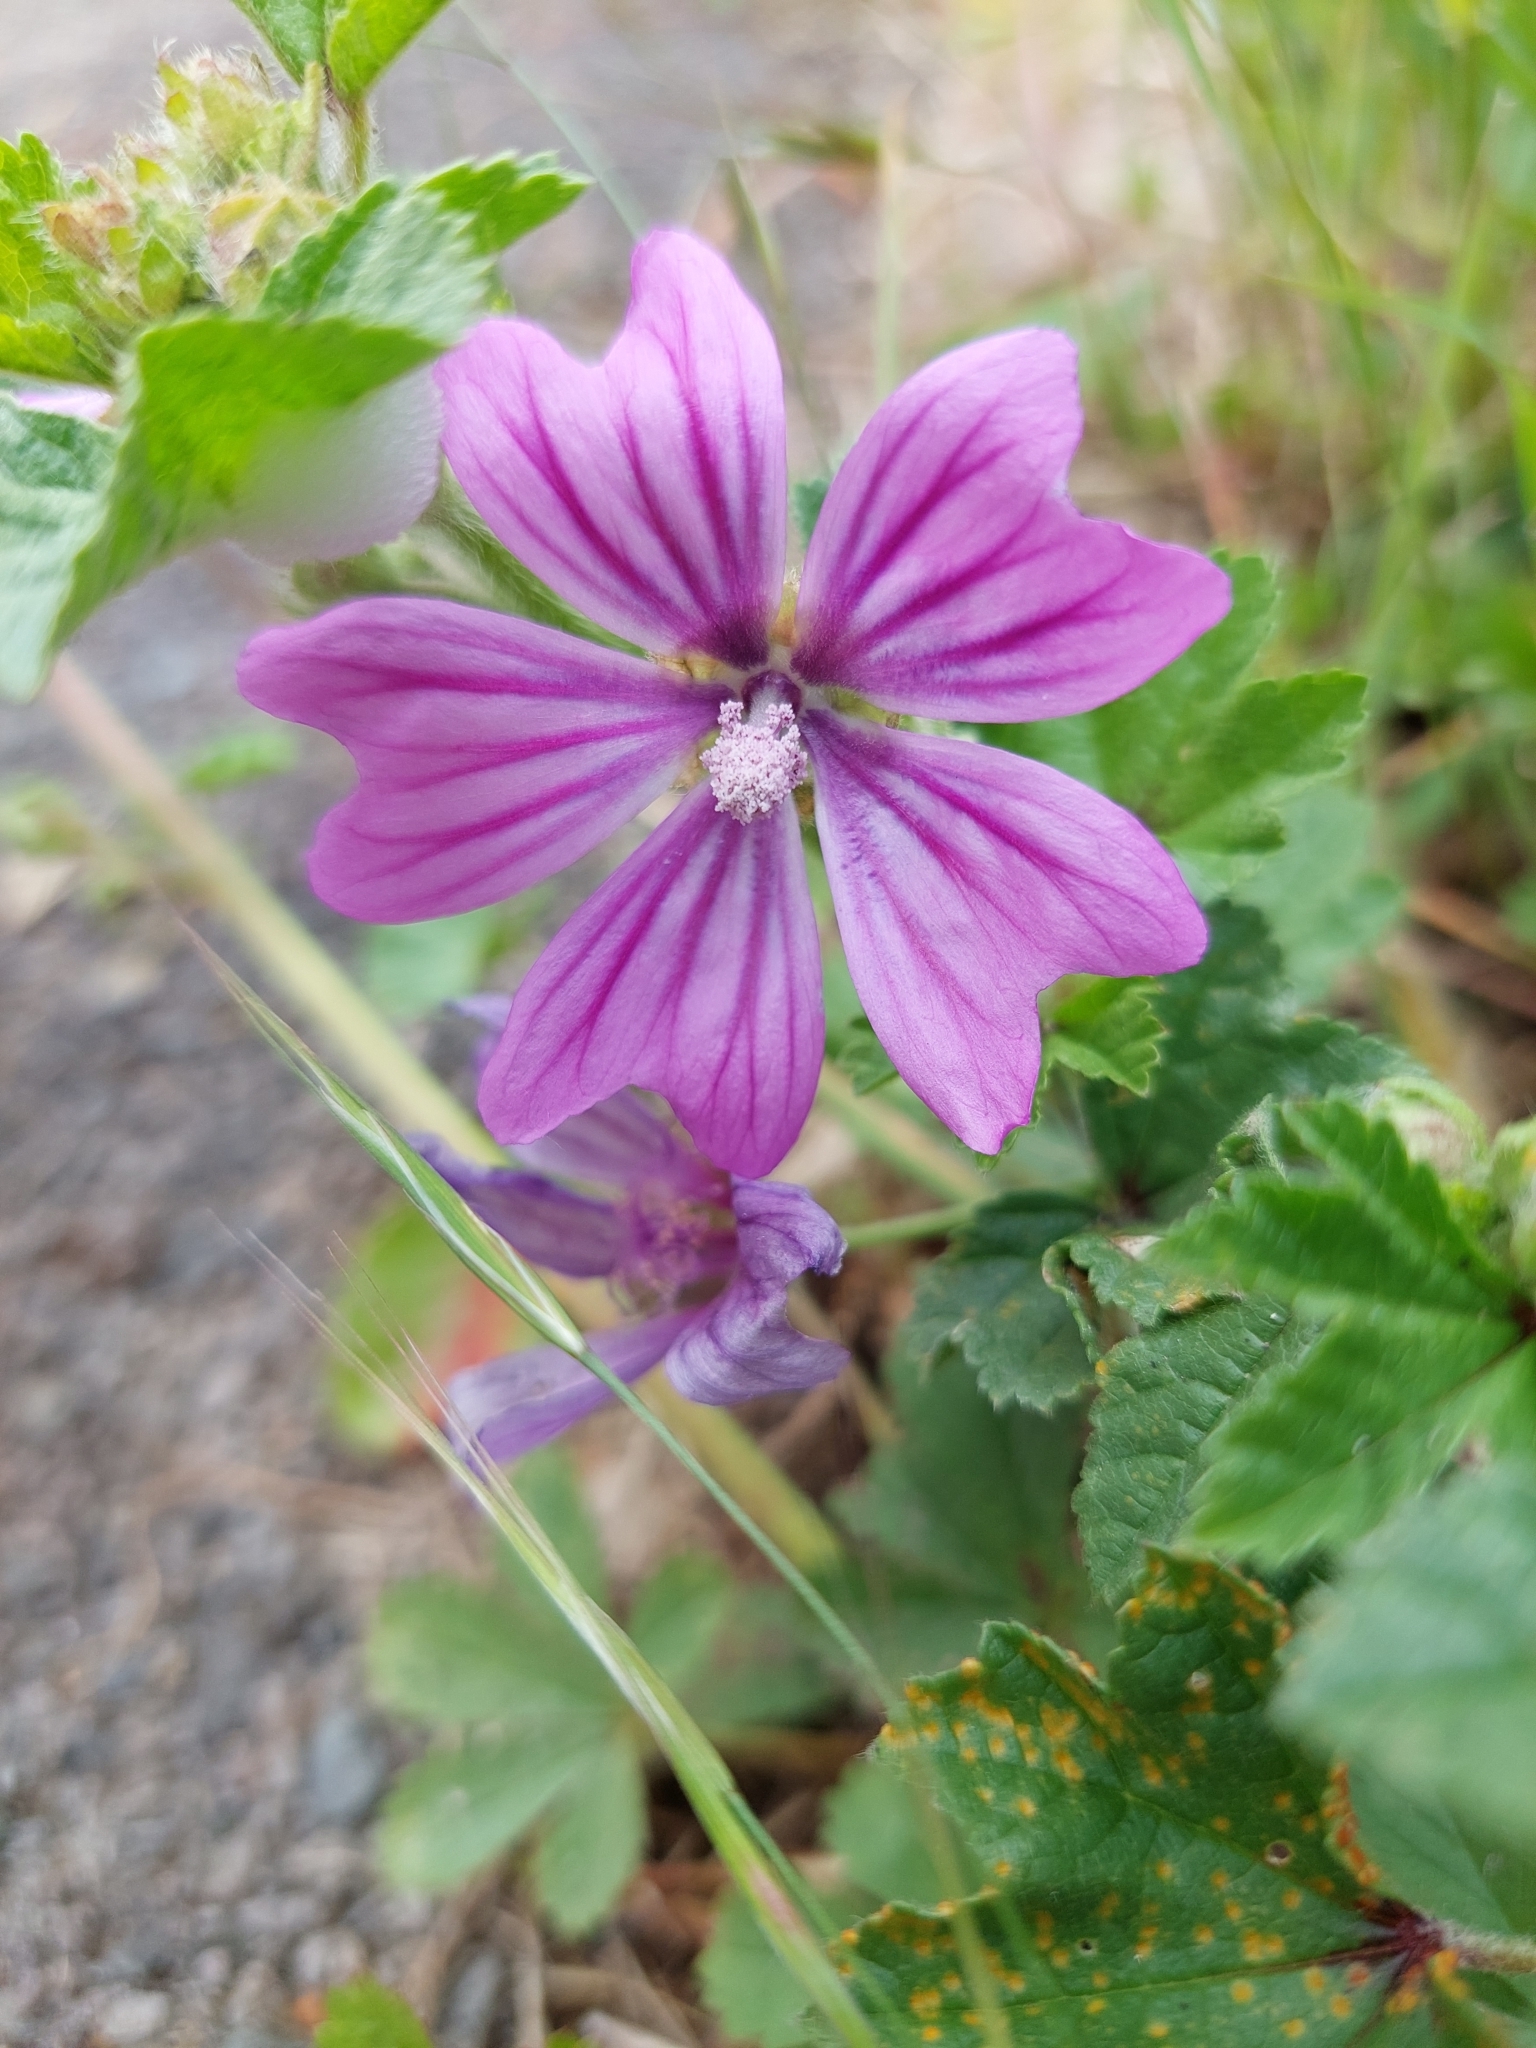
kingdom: Plantae
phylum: Tracheophyta
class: Magnoliopsida
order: Malvales
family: Malvaceae
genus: Malva
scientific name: Malva sylvestris
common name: Common mallow
